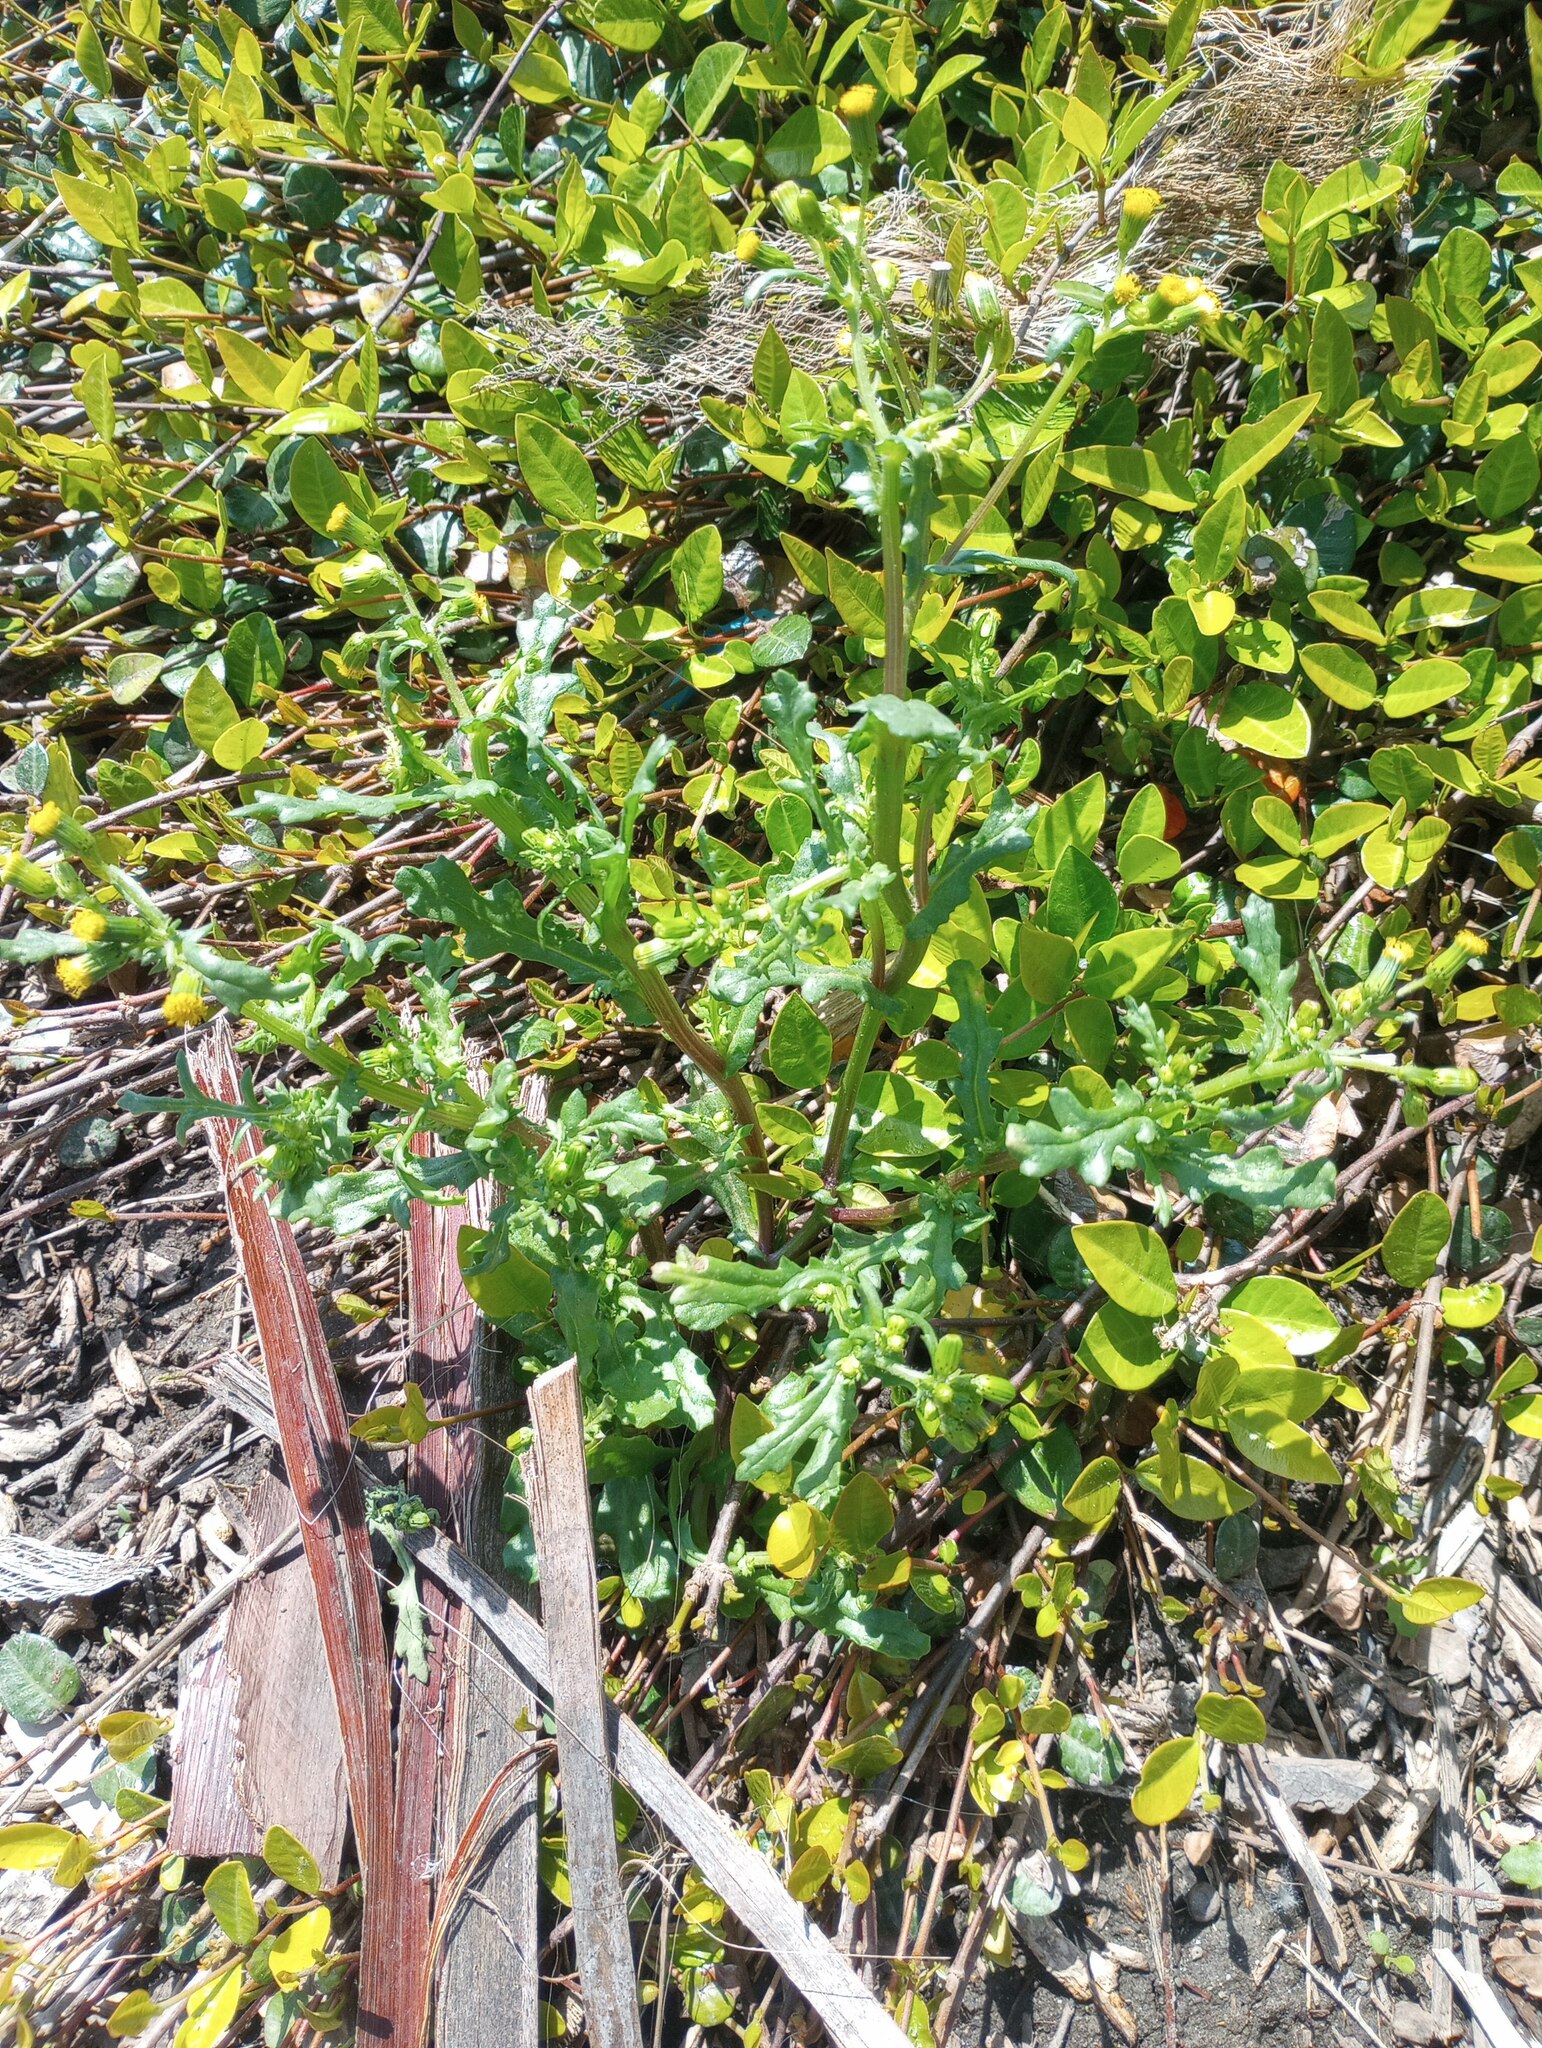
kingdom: Plantae
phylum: Tracheophyta
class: Magnoliopsida
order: Asterales
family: Asteraceae
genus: Senecio
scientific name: Senecio vulgaris
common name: Old-man-in-the-spring
